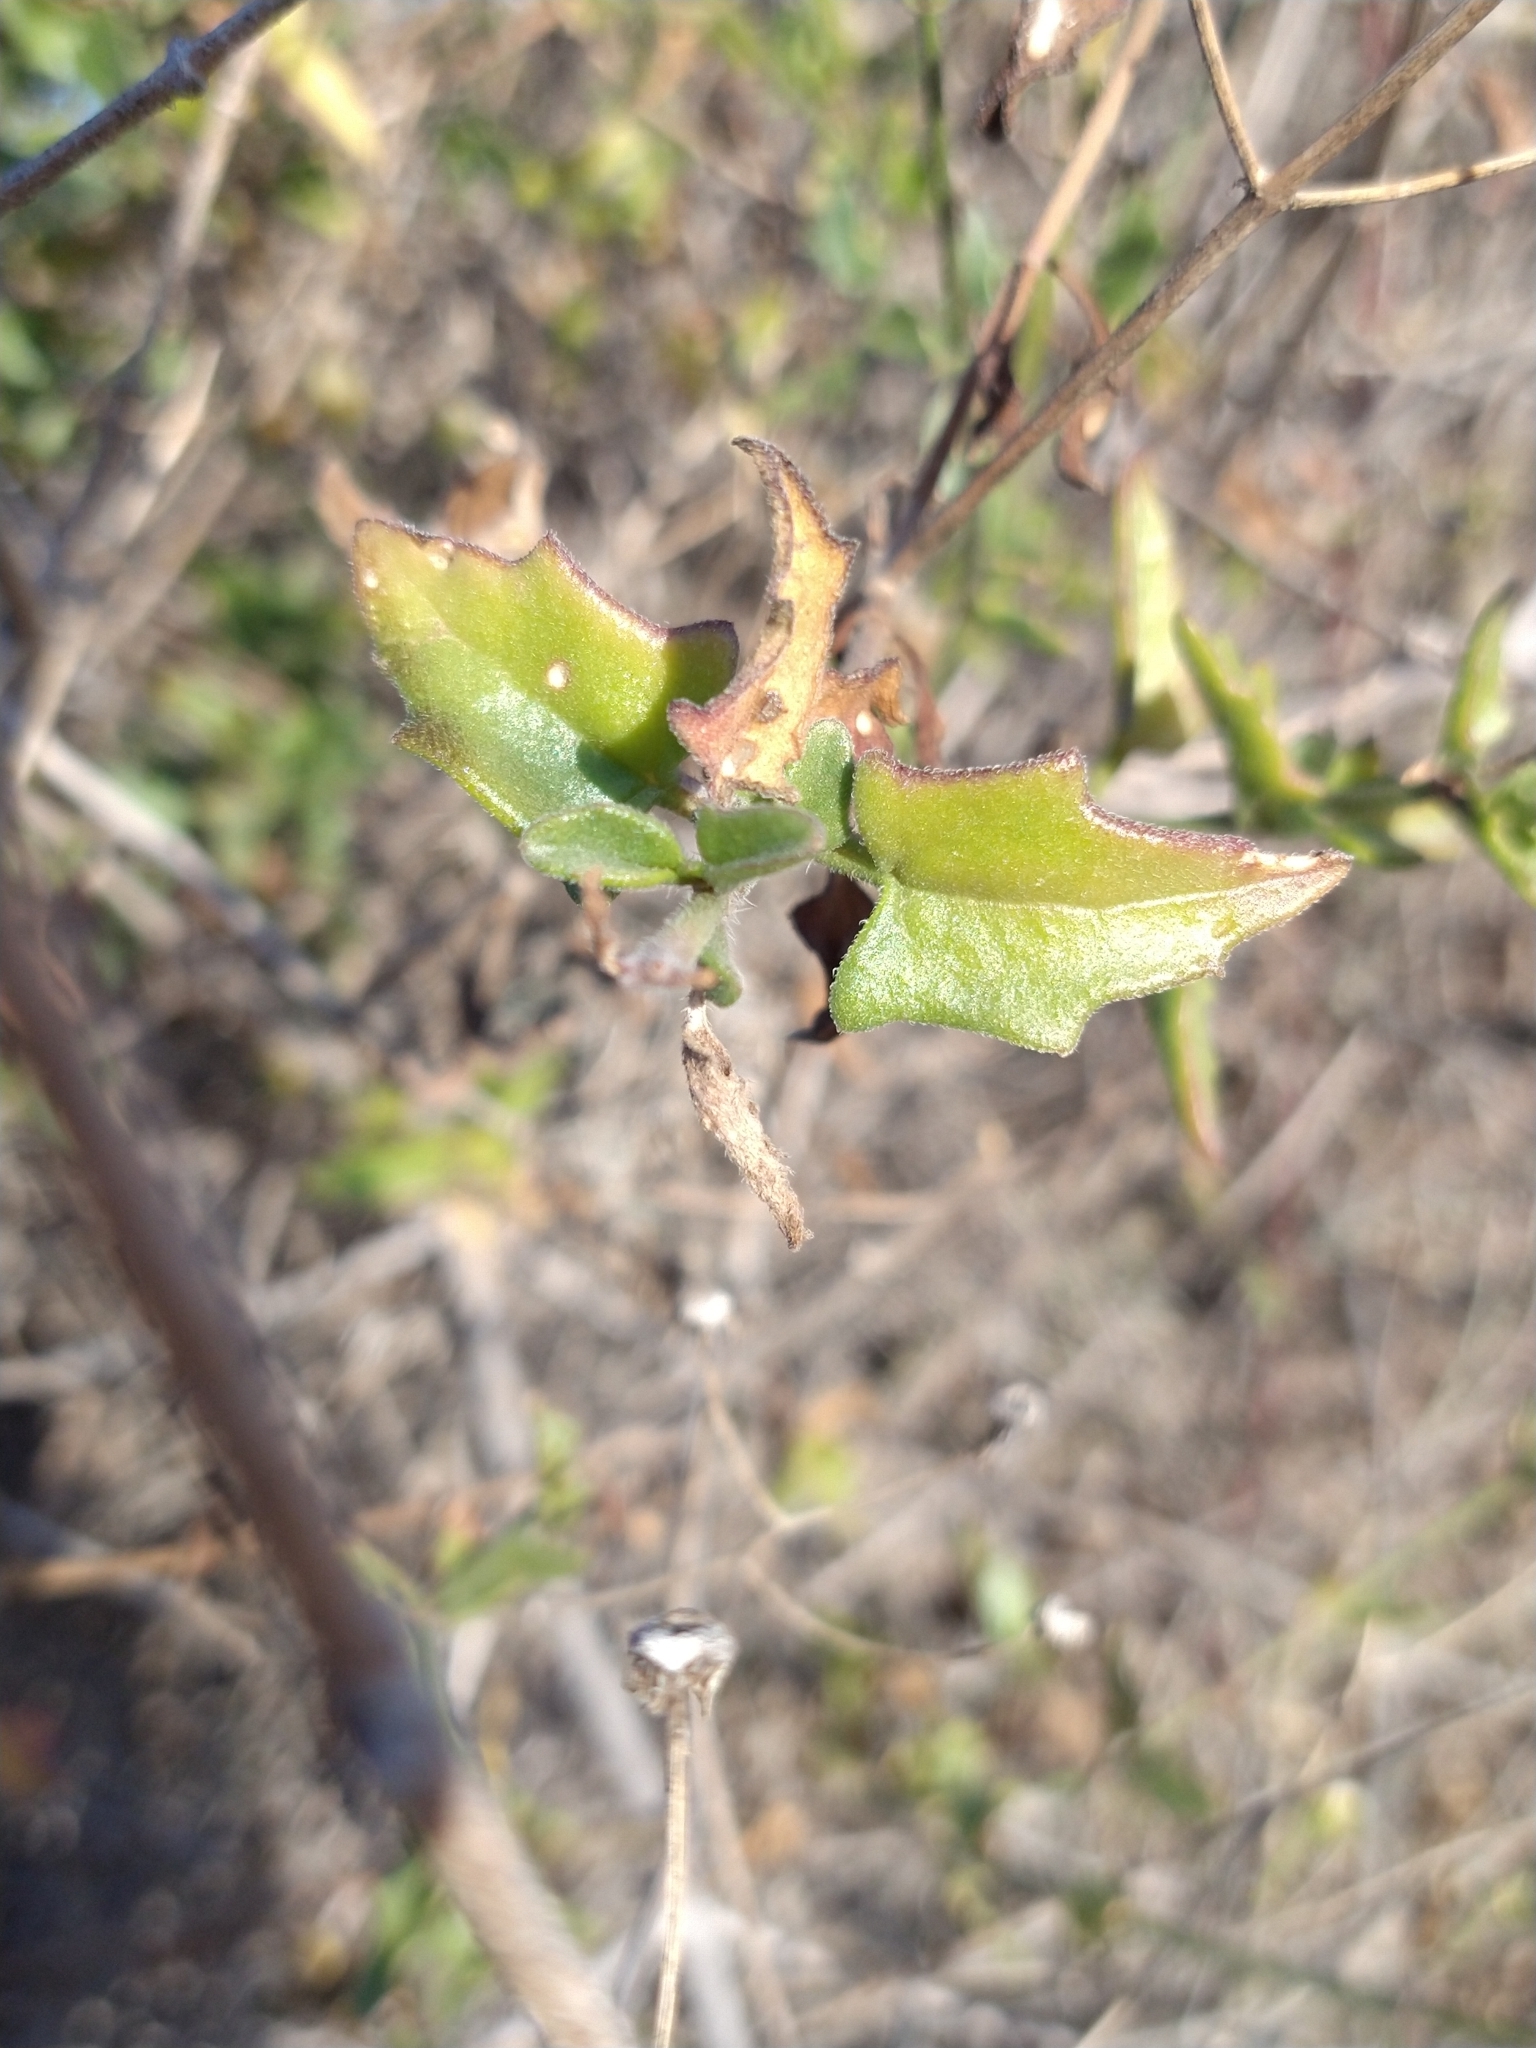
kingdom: Plantae
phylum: Tracheophyta
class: Magnoliopsida
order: Asterales
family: Asteraceae
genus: Bebbia
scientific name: Bebbia atriplicifolia
